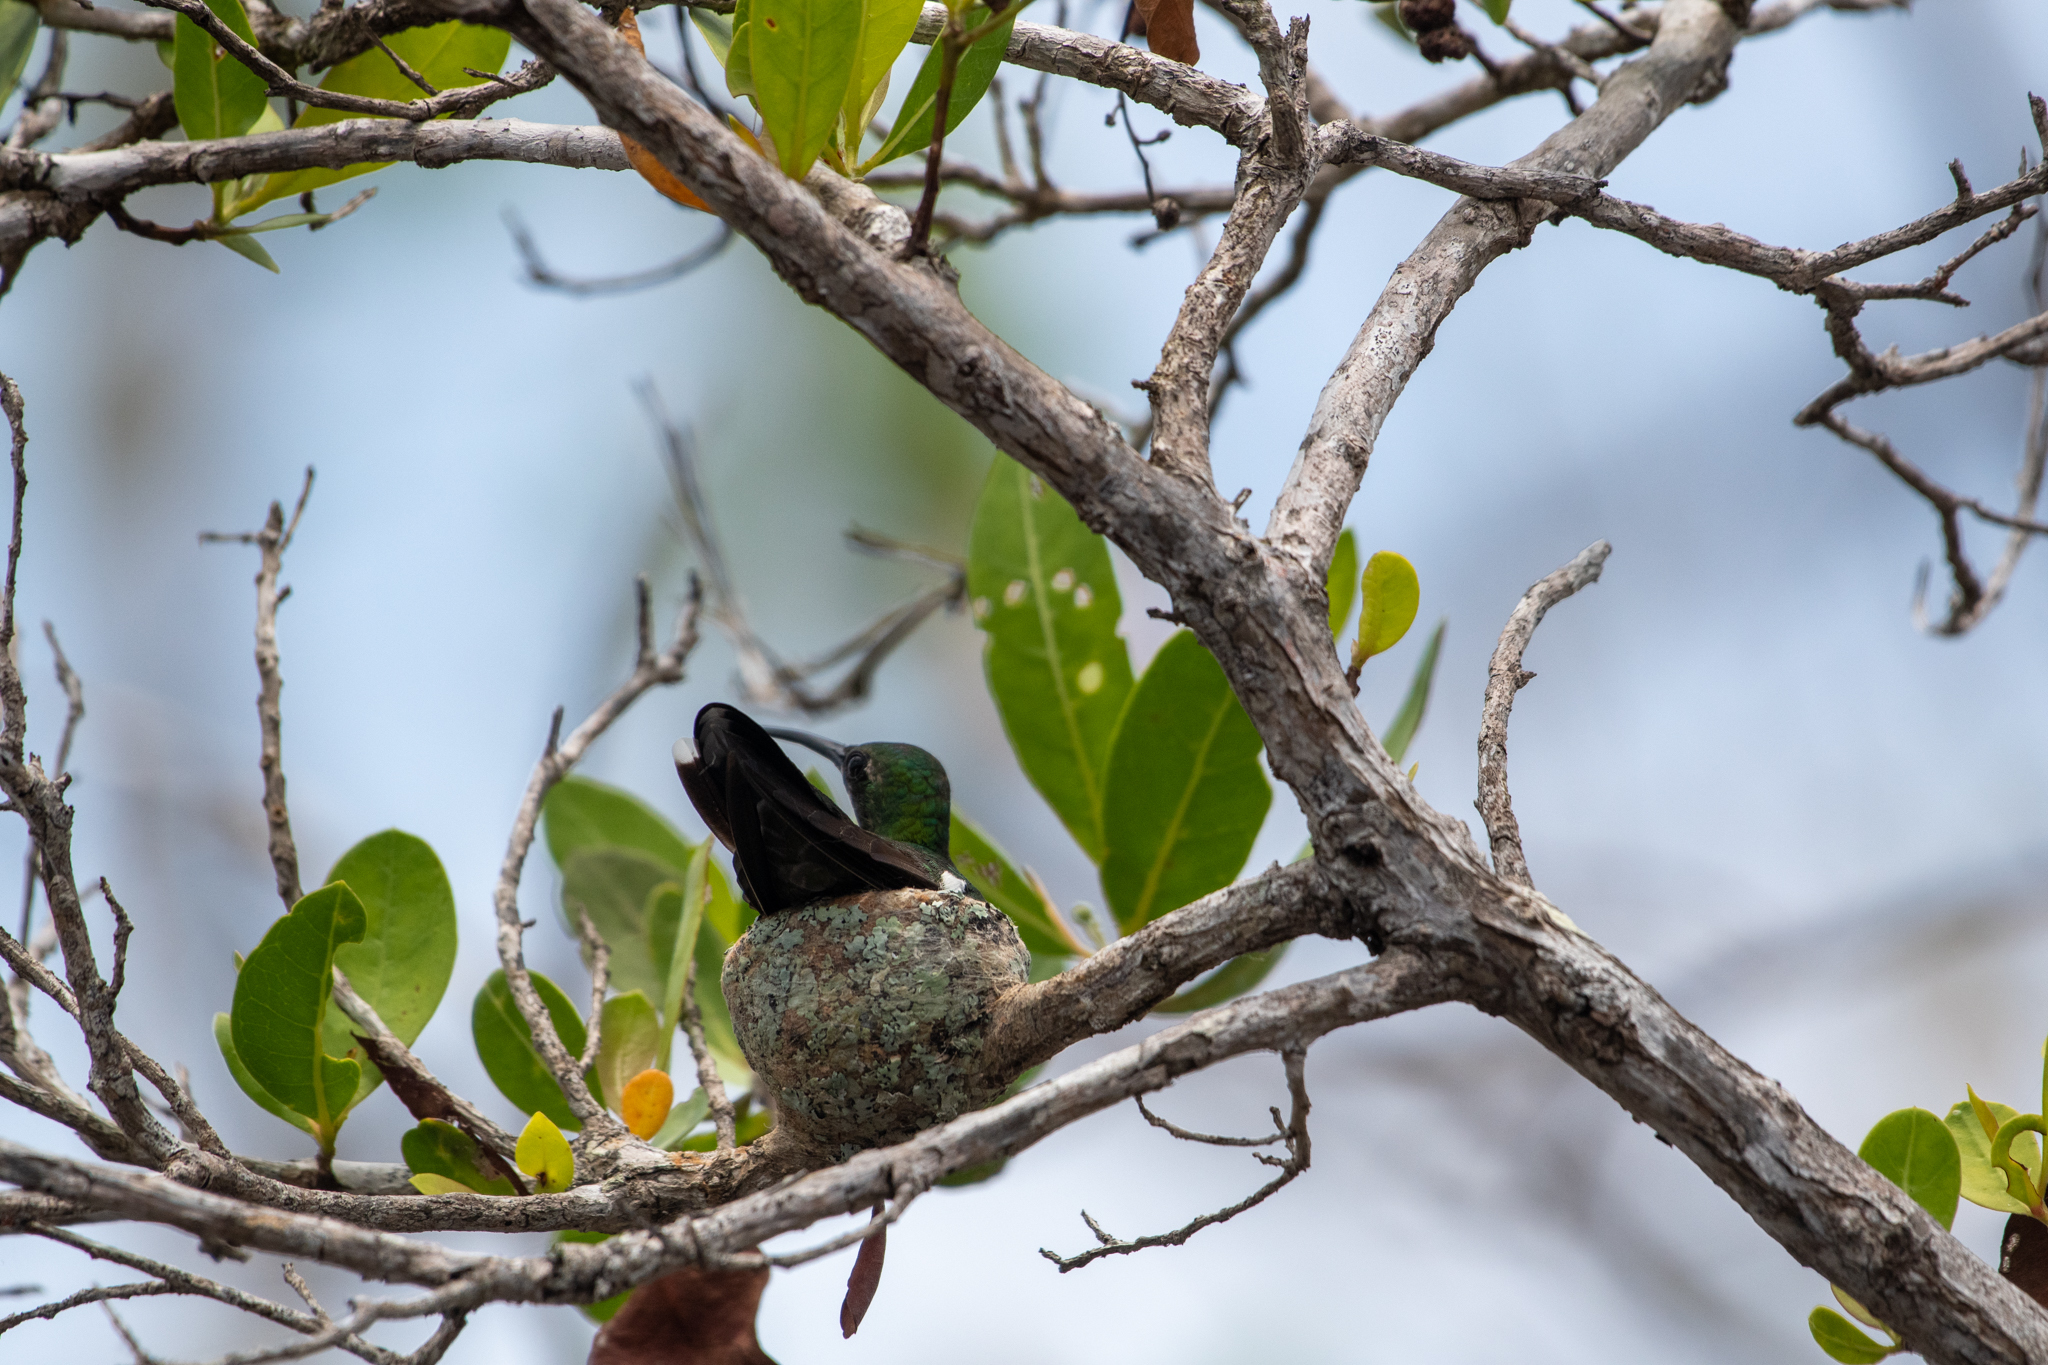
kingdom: Animalia
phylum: Chordata
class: Aves
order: Apodiformes
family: Trochilidae
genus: Anthracothorax
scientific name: Anthracothorax prevostii
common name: Green-breasted mango
